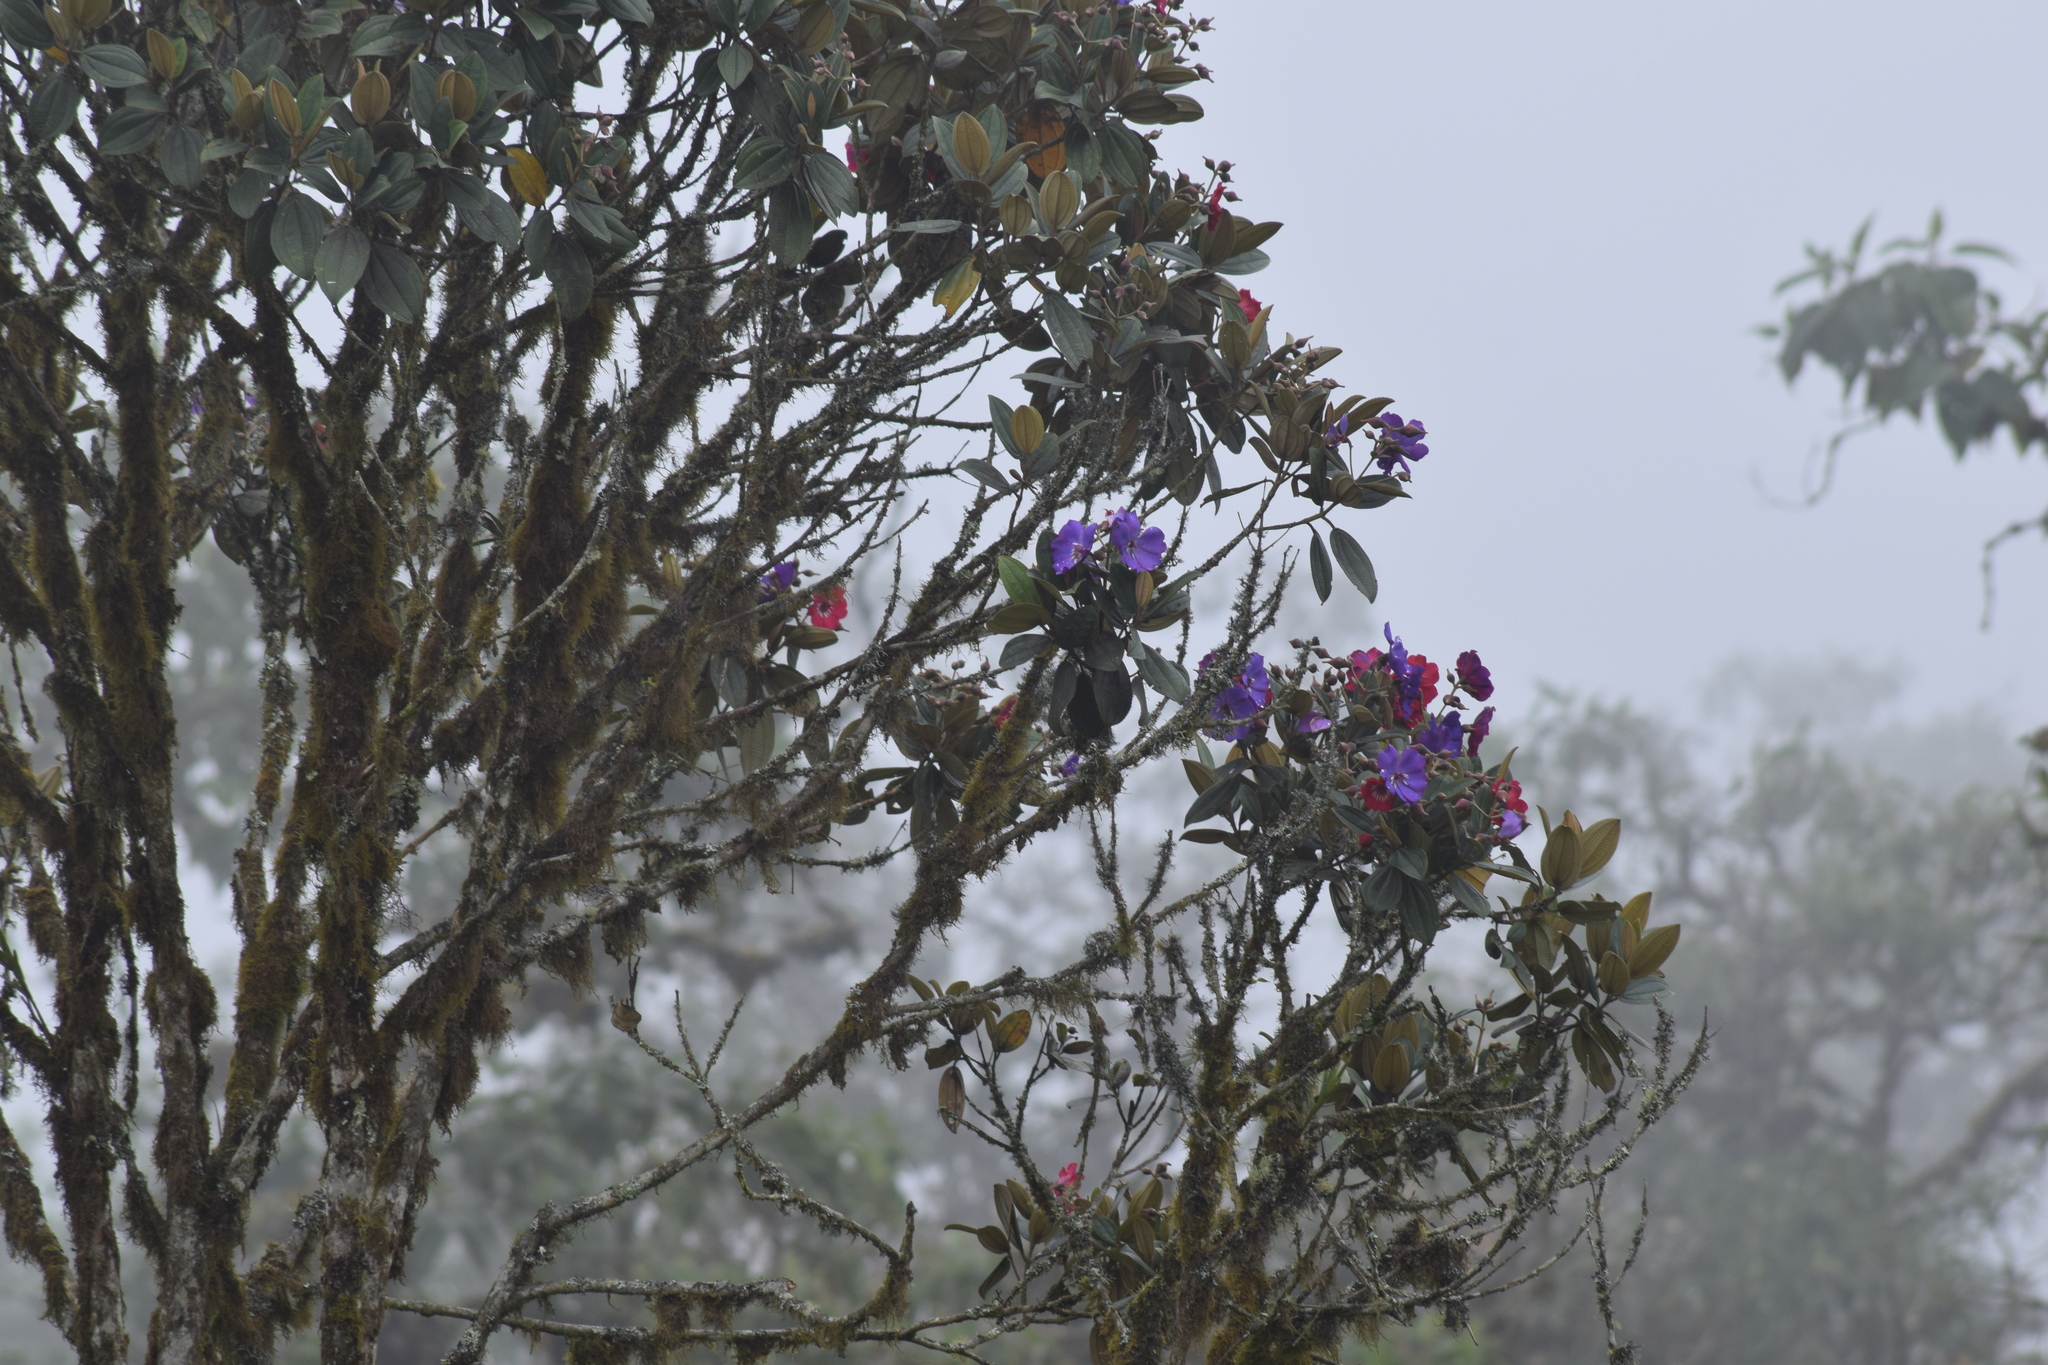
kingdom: Plantae
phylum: Tracheophyta
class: Magnoliopsida
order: Myrtales
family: Melastomataceae
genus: Meriania
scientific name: Meriania brachycera
